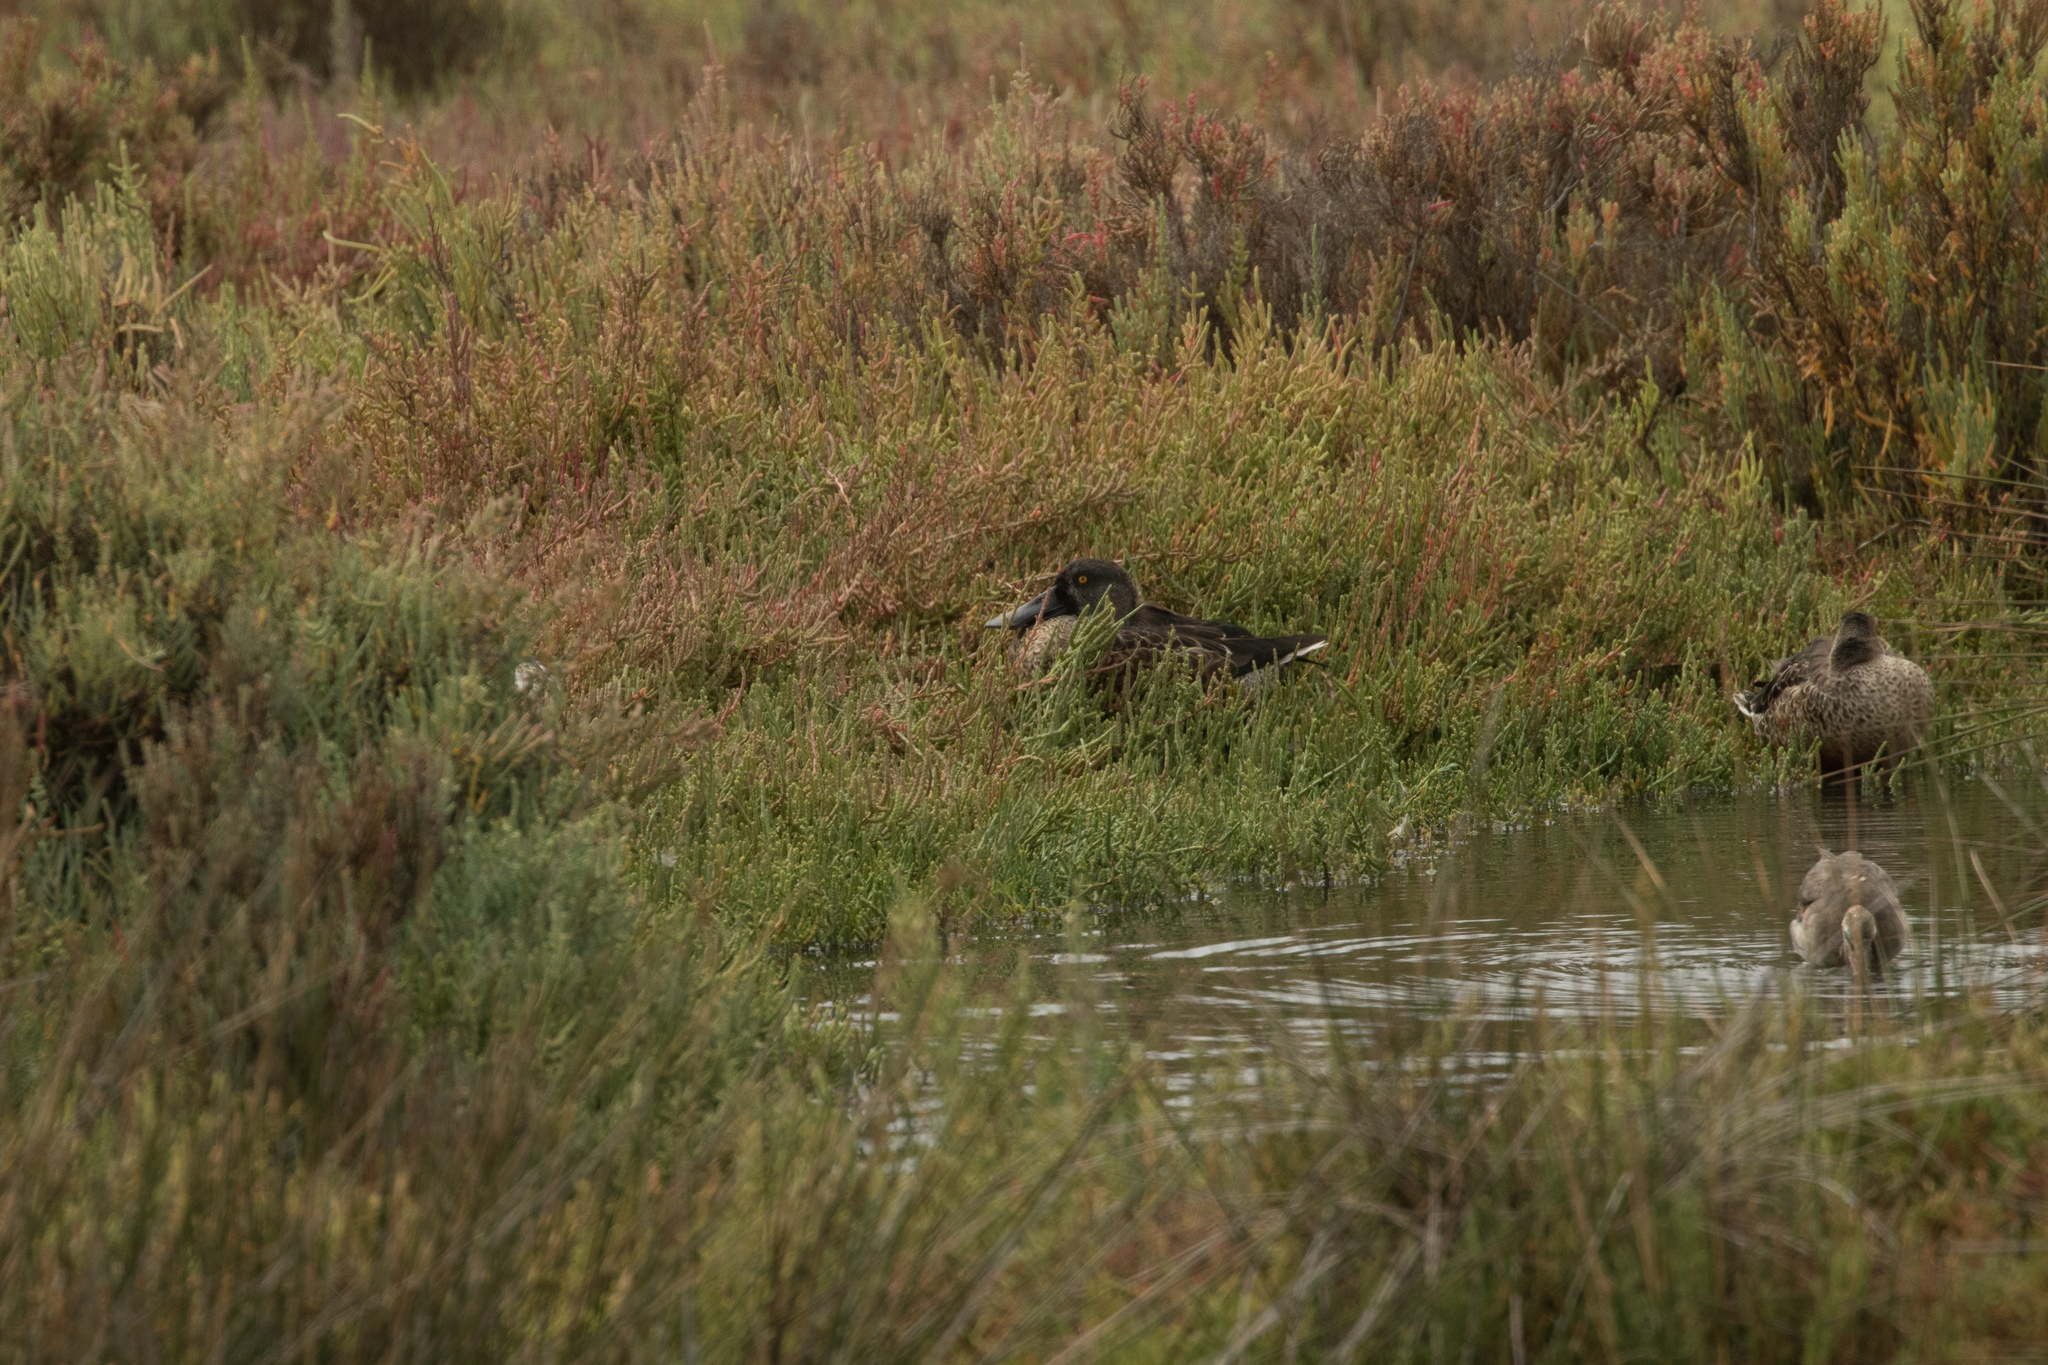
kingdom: Animalia
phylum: Chordata
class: Aves
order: Anseriformes
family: Anatidae
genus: Spatula
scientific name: Spatula clypeata
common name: Northern shoveler
